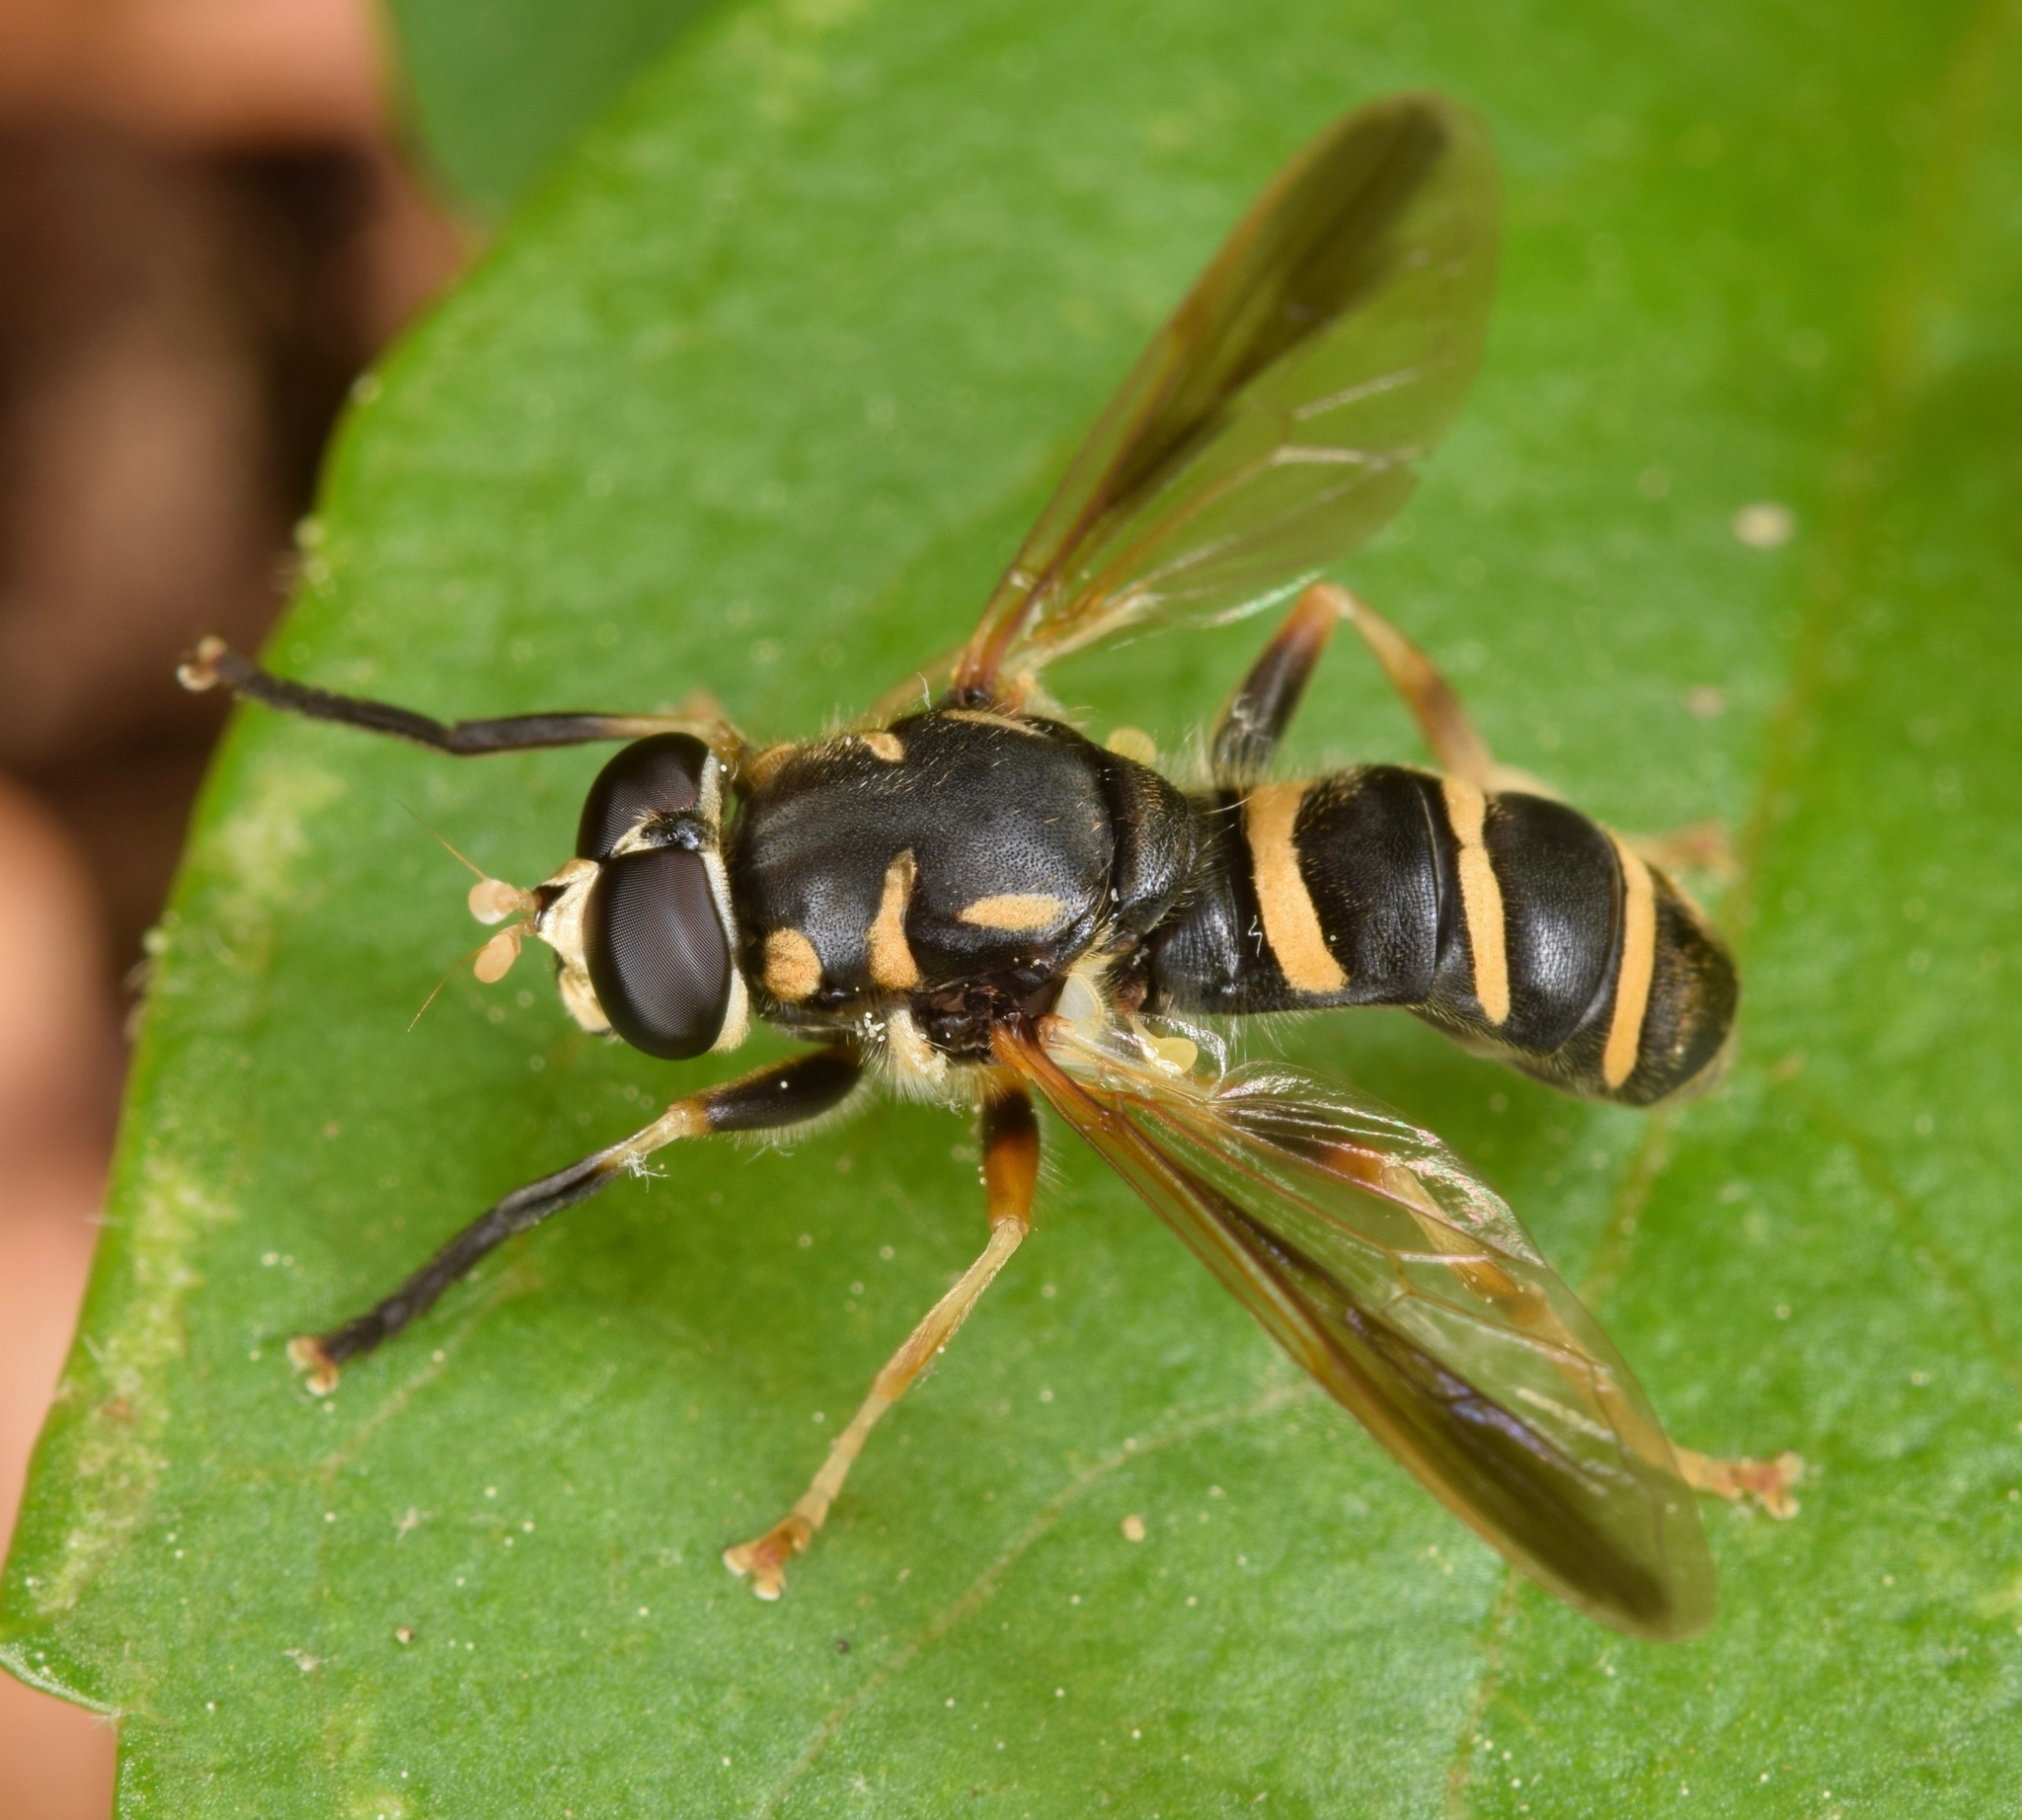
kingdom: Animalia
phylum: Arthropoda
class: Insecta
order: Diptera
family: Syrphidae
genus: Temnostoma
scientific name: Temnostoma balyras
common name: Yellow-haired falsehorn
